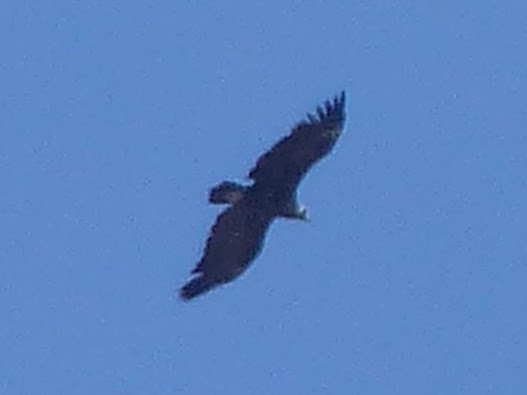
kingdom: Animalia
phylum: Chordata
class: Aves
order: Accipitriformes
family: Accipitridae
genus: Aegypius
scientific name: Aegypius monachus
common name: Cinereous vulture
